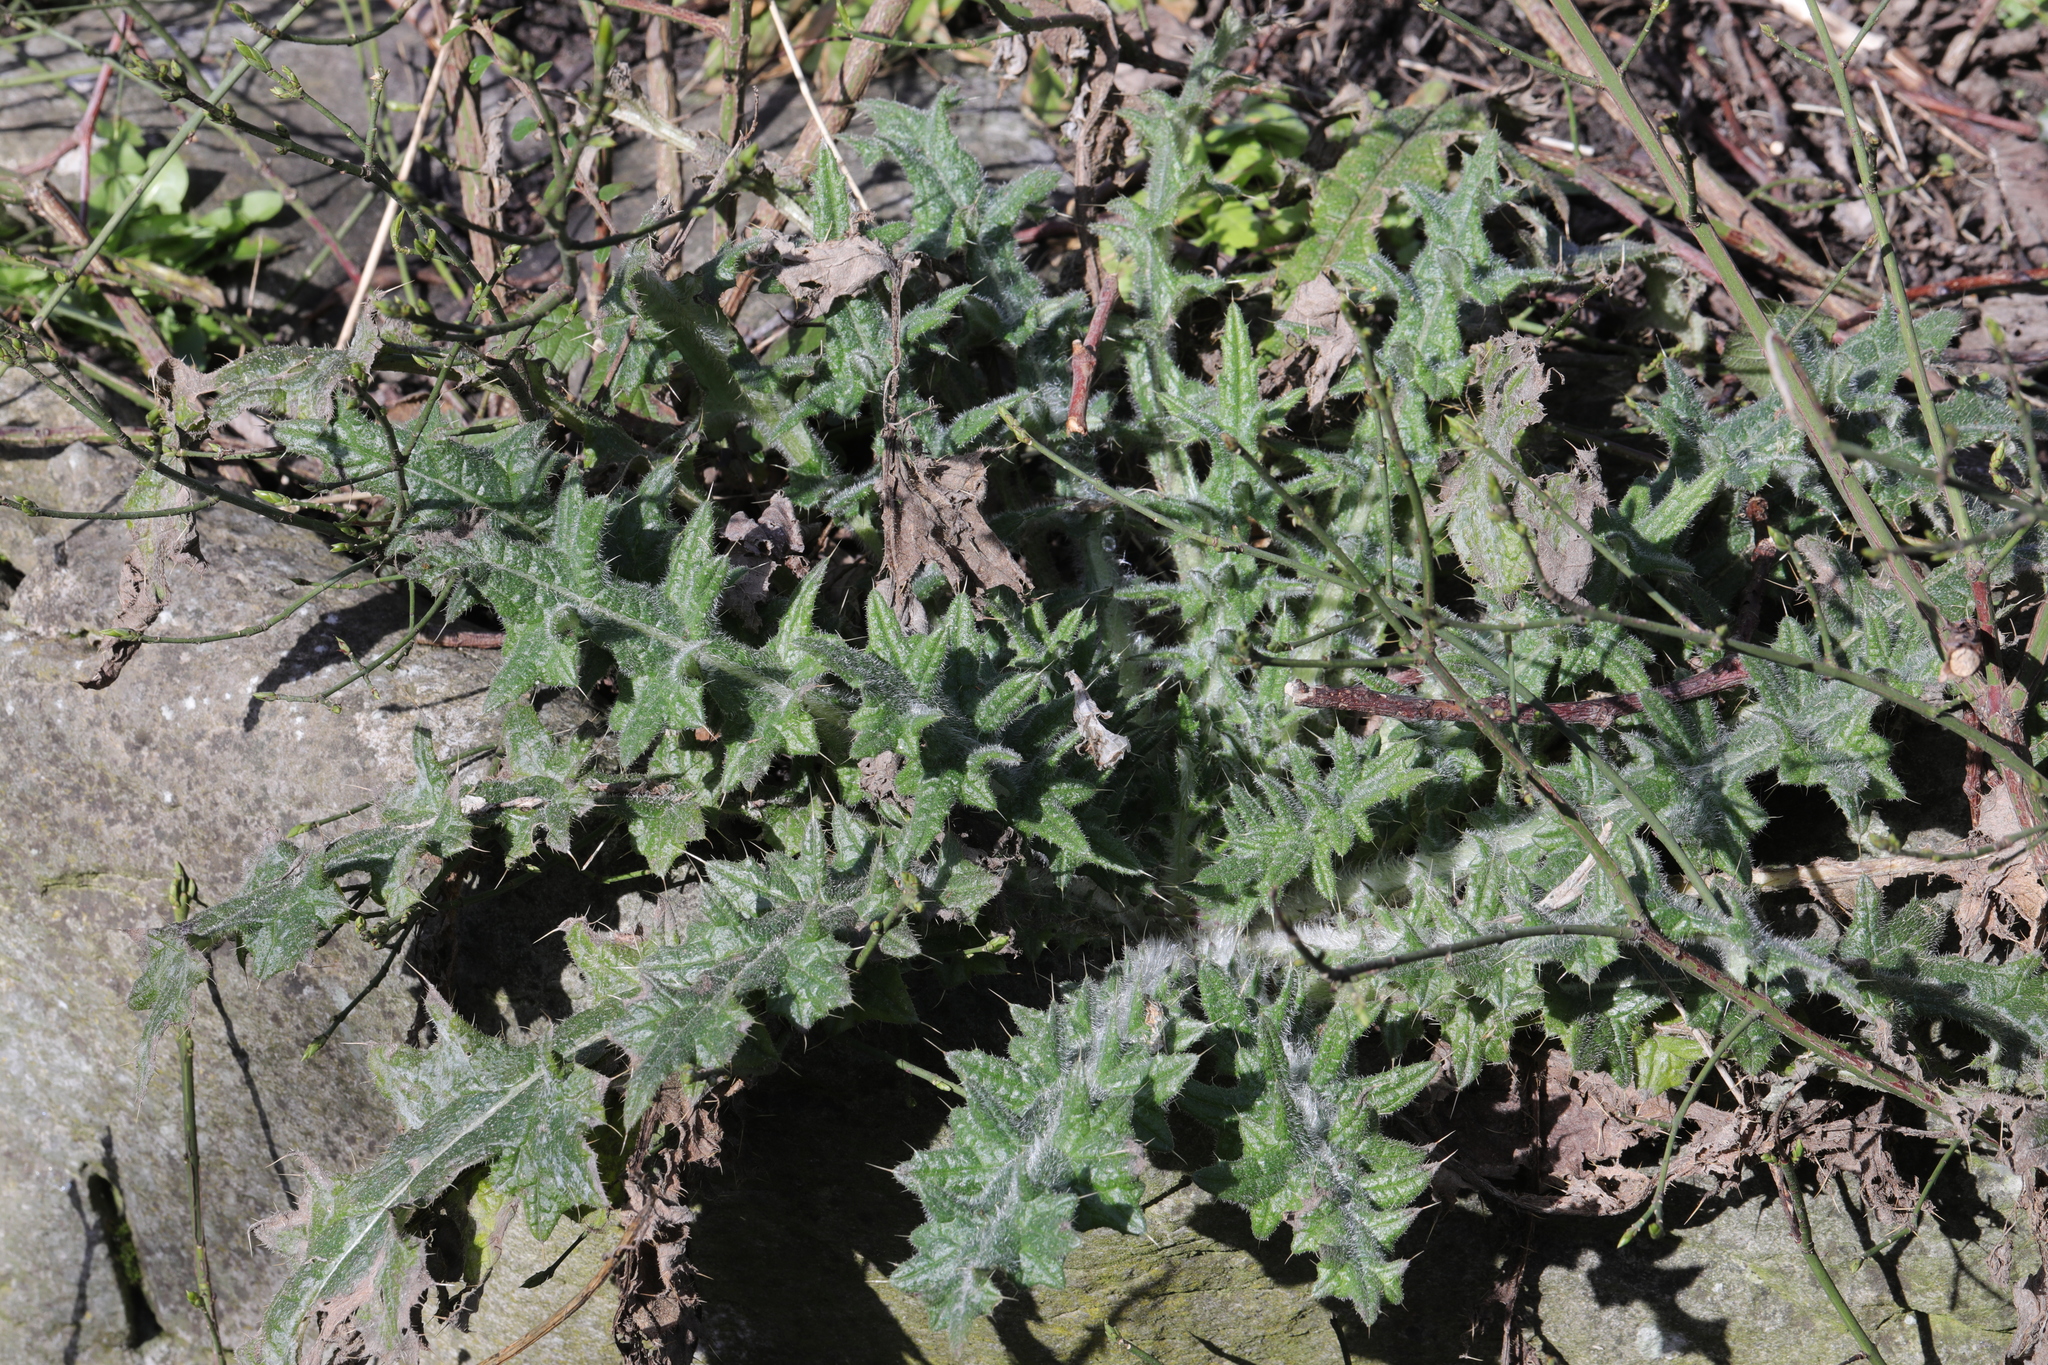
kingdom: Plantae
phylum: Tracheophyta
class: Magnoliopsida
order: Asterales
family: Asteraceae
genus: Cirsium
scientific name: Cirsium vulgare
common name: Bull thistle
